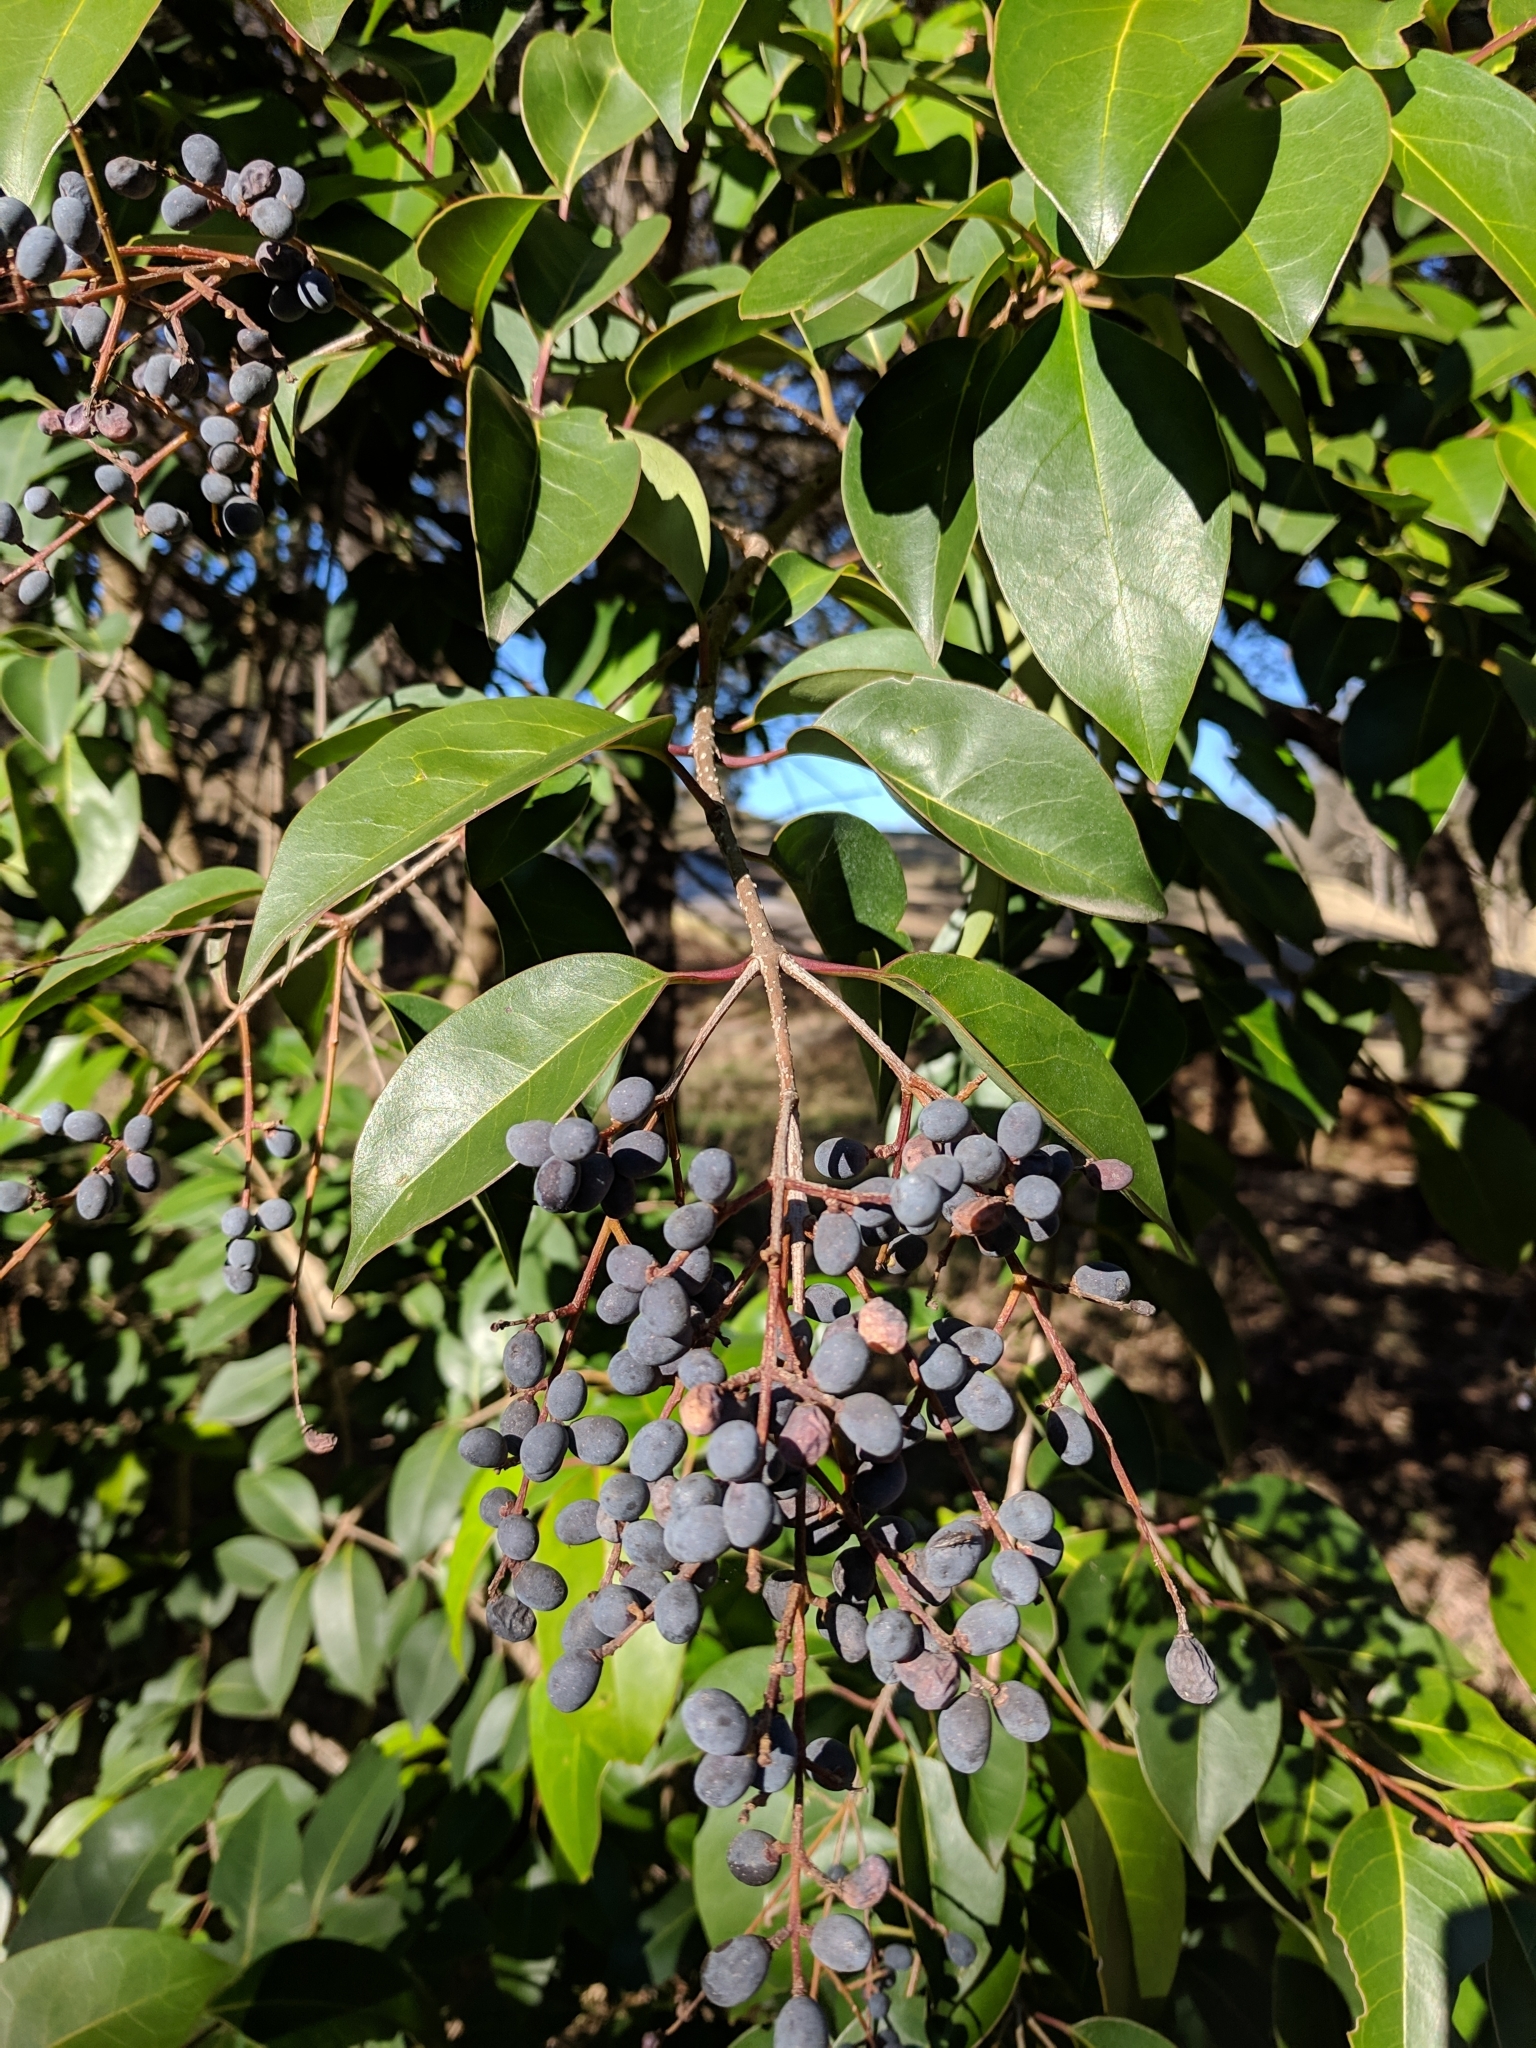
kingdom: Plantae
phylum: Tracheophyta
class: Magnoliopsida
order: Lamiales
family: Oleaceae
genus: Ligustrum
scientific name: Ligustrum lucidum
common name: Glossy privet
